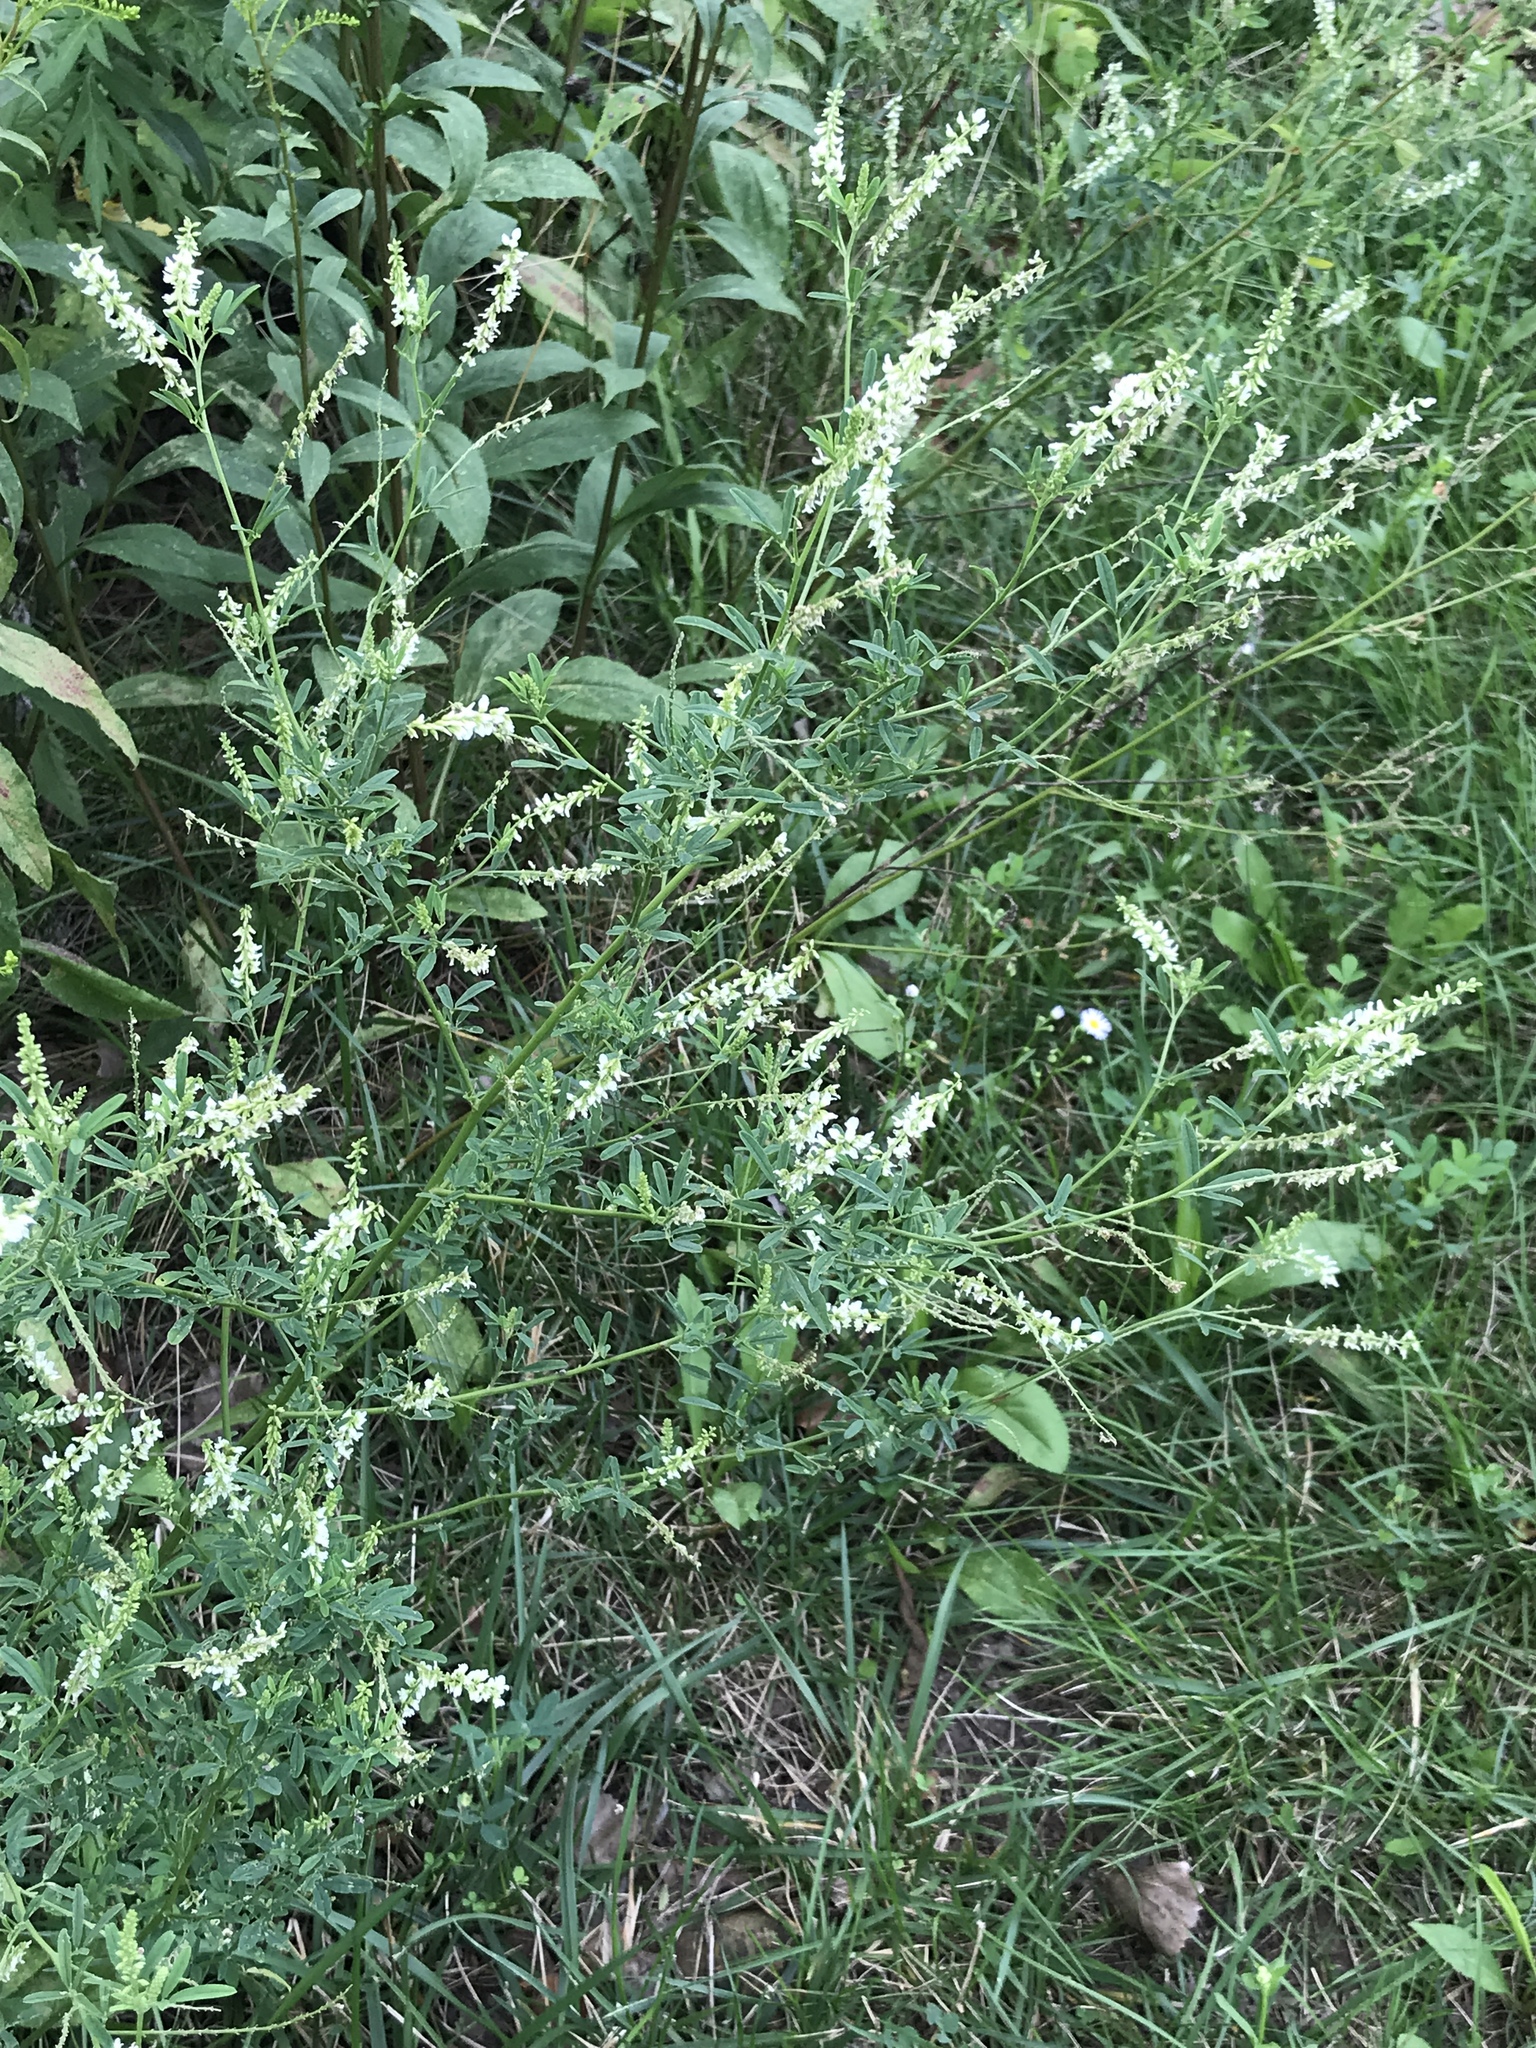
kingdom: Plantae
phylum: Tracheophyta
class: Magnoliopsida
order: Fabales
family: Fabaceae
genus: Melilotus
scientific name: Melilotus albus
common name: White melilot
